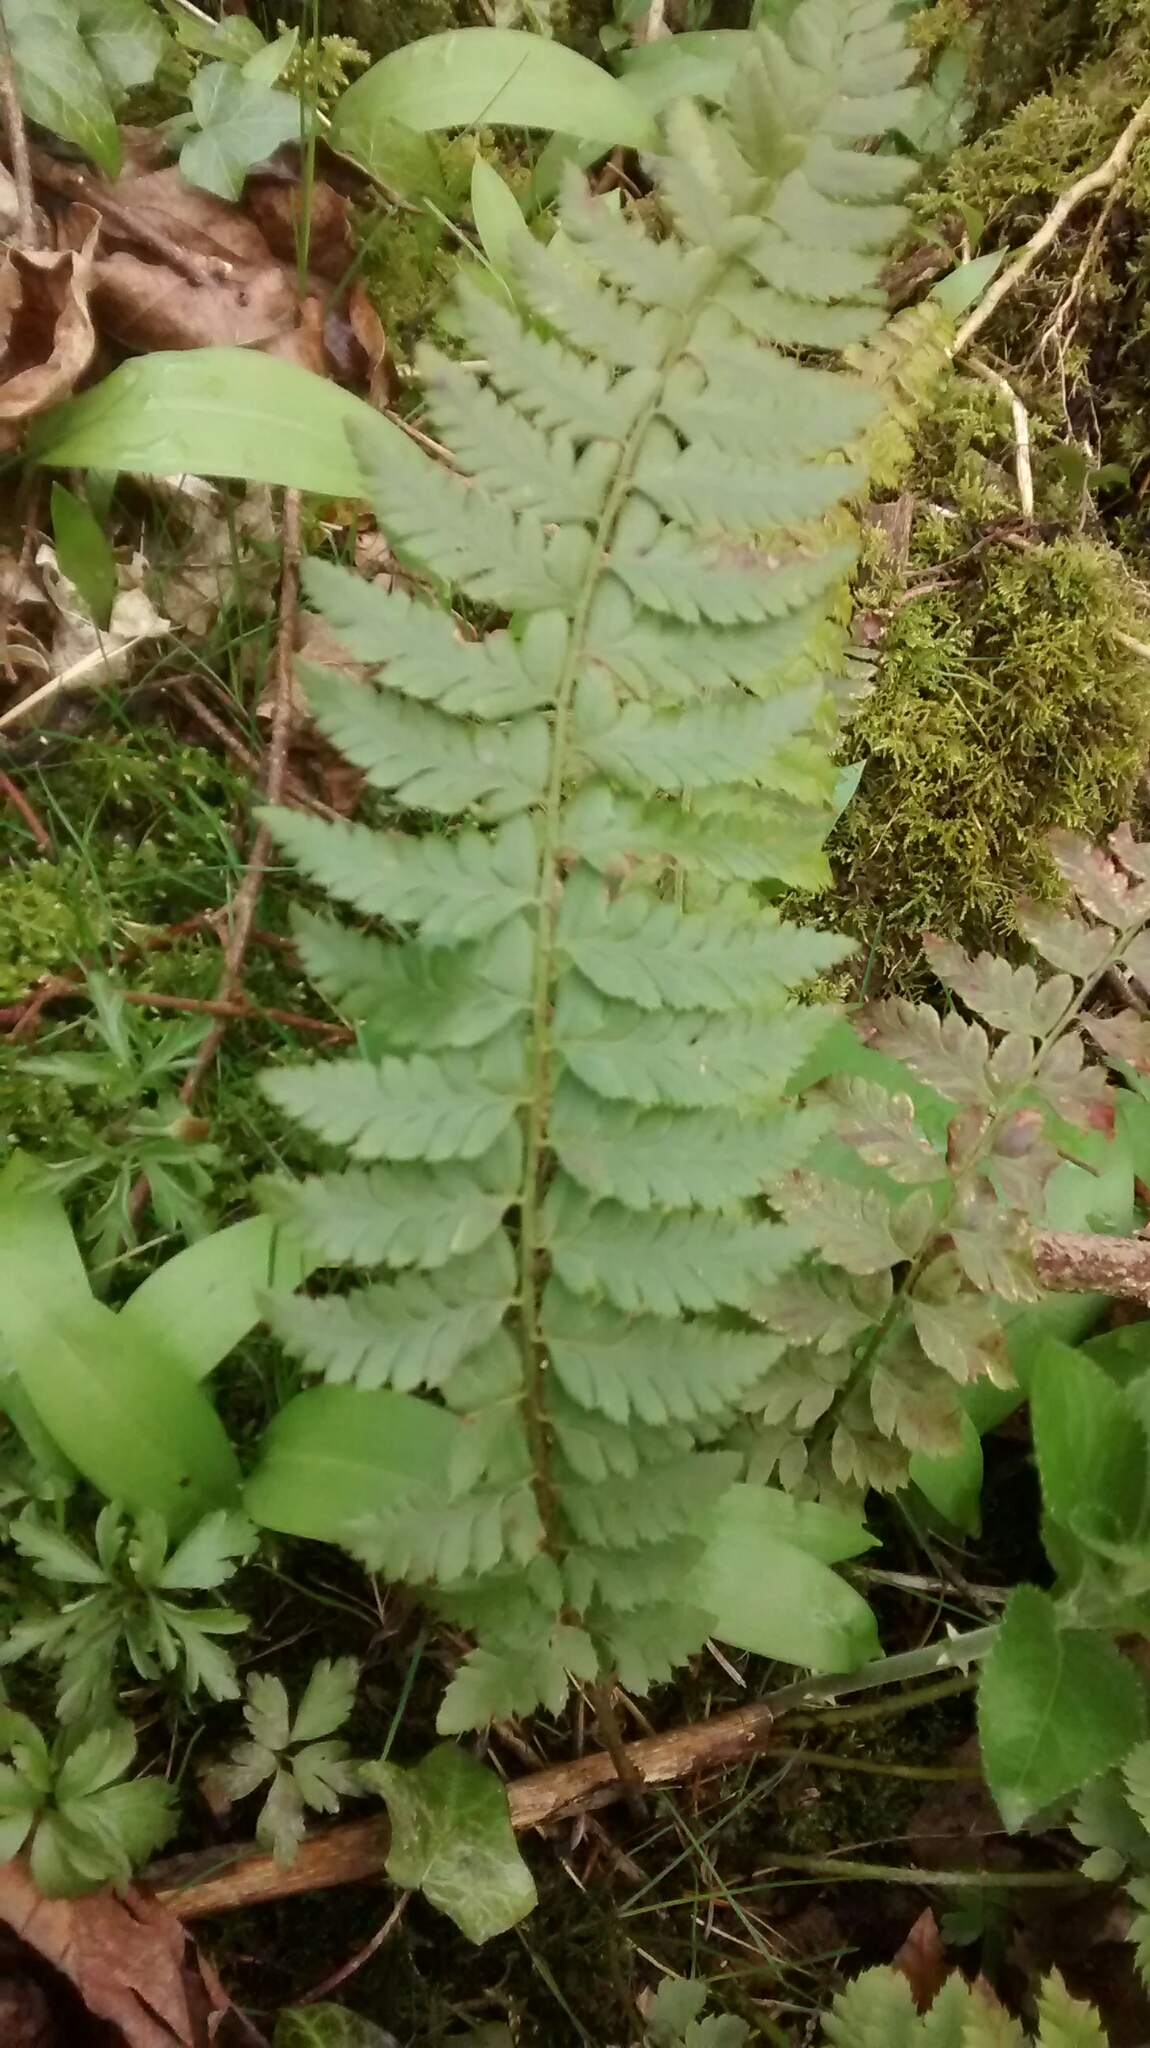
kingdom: Plantae
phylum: Tracheophyta
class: Polypodiopsida
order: Polypodiales
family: Dryopteridaceae
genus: Polystichum
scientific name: Polystichum aculeatum
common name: Hard shield-fern
